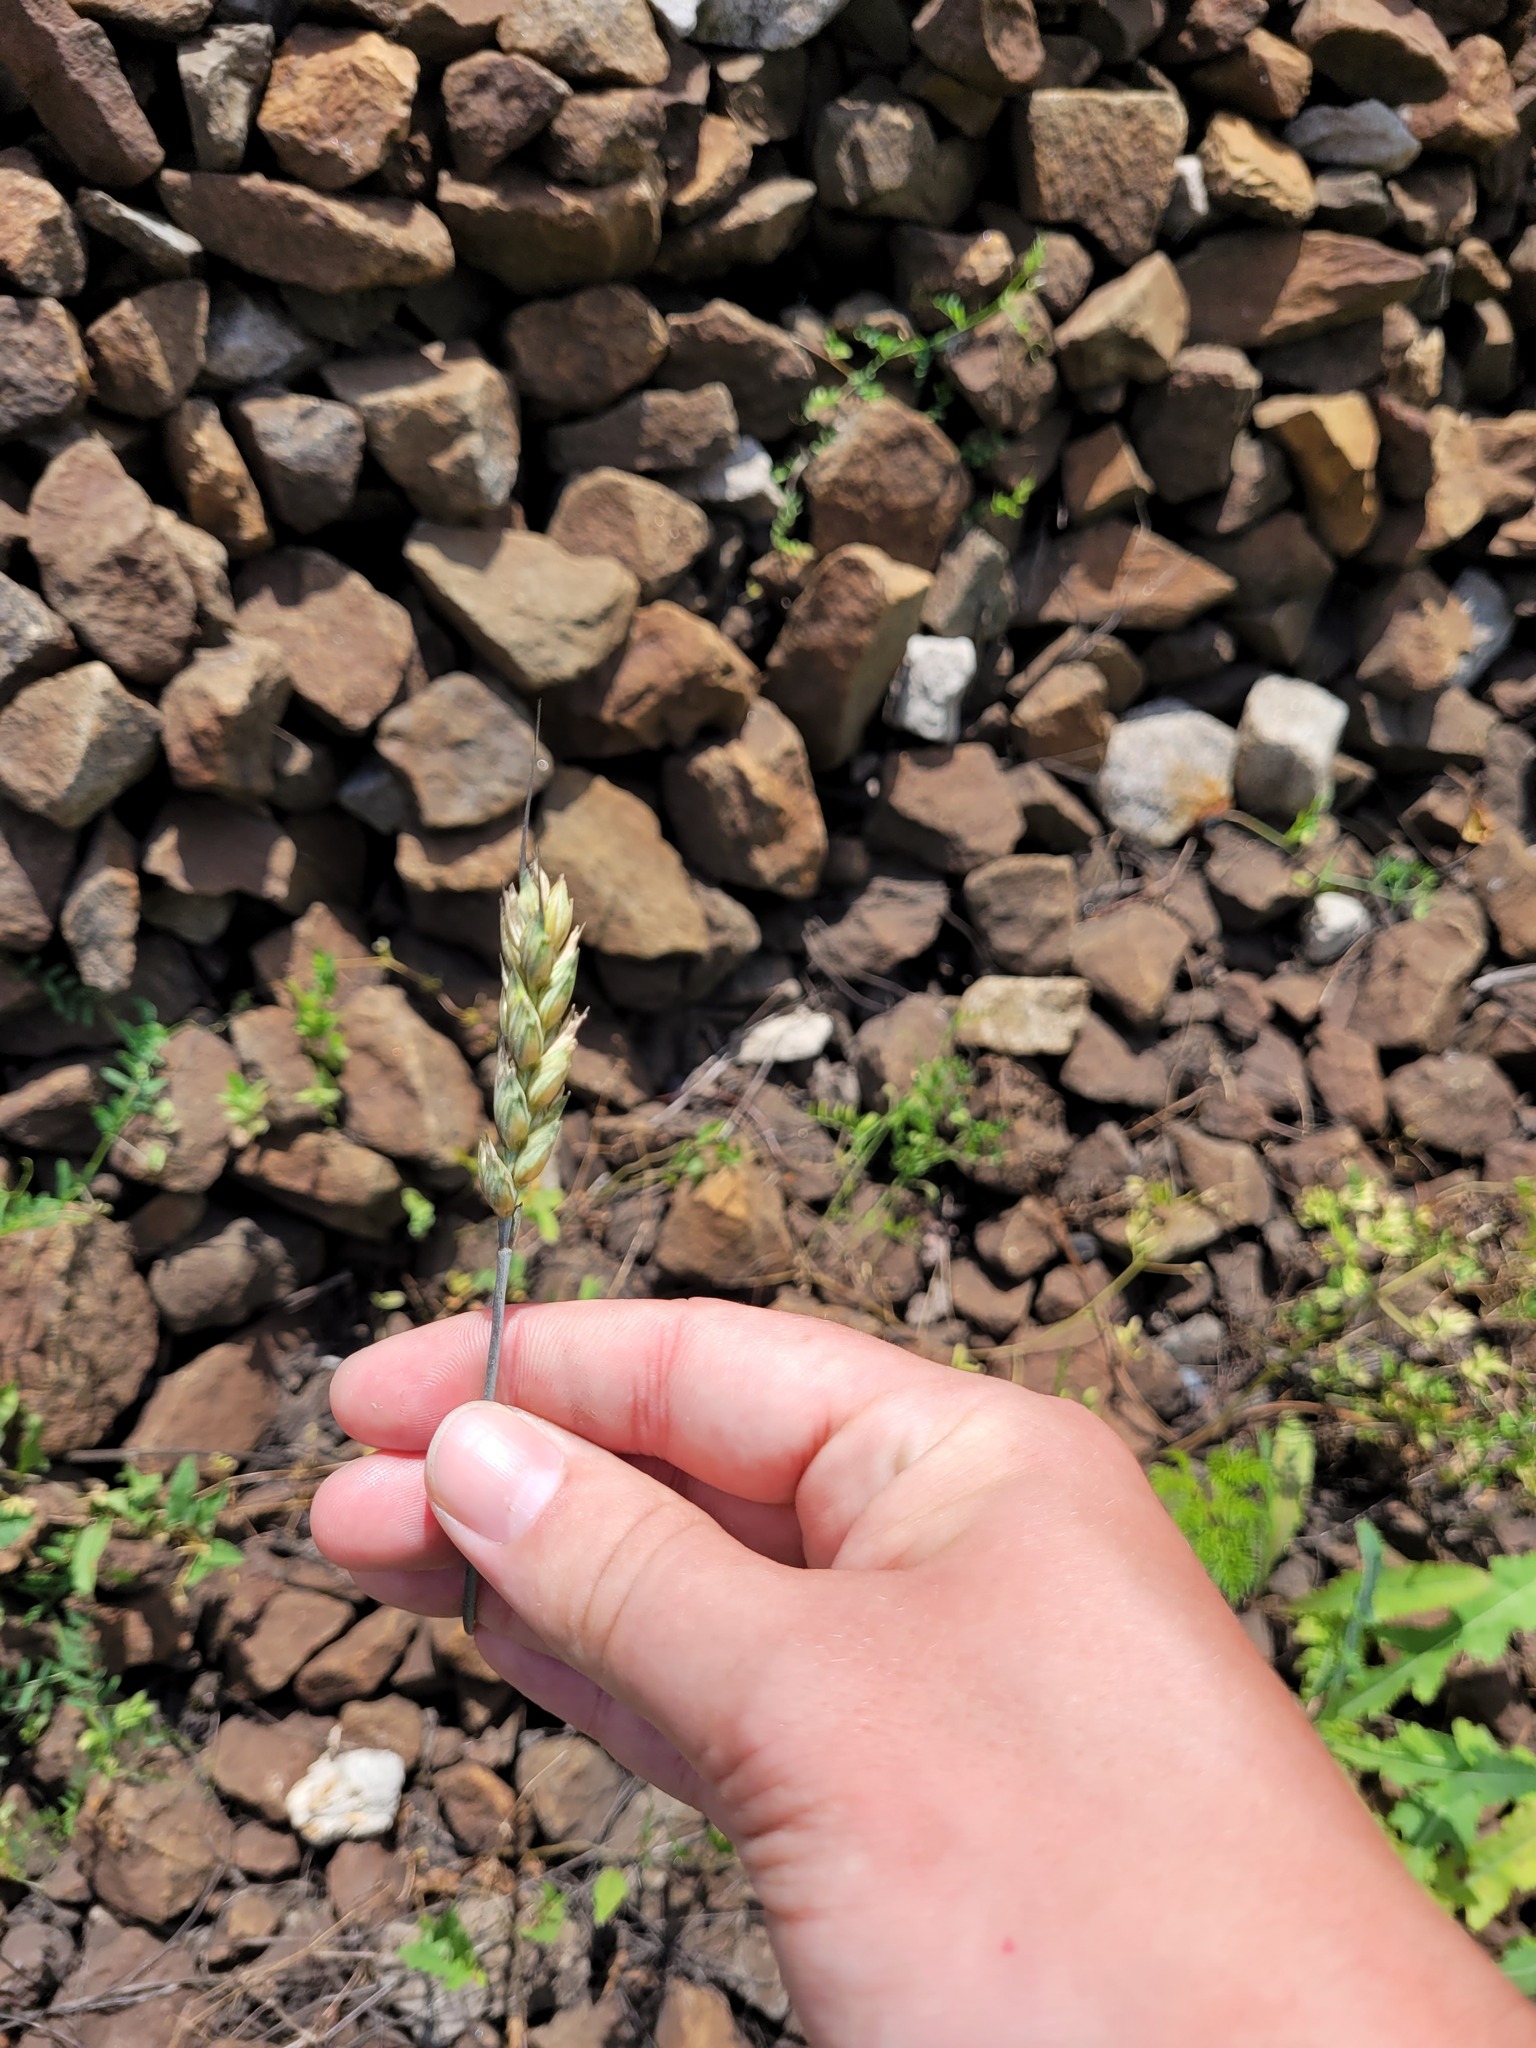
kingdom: Plantae
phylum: Tracheophyta
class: Liliopsida
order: Poales
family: Poaceae
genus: Triticum
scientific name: Triticum aestivum
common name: Common wheat
